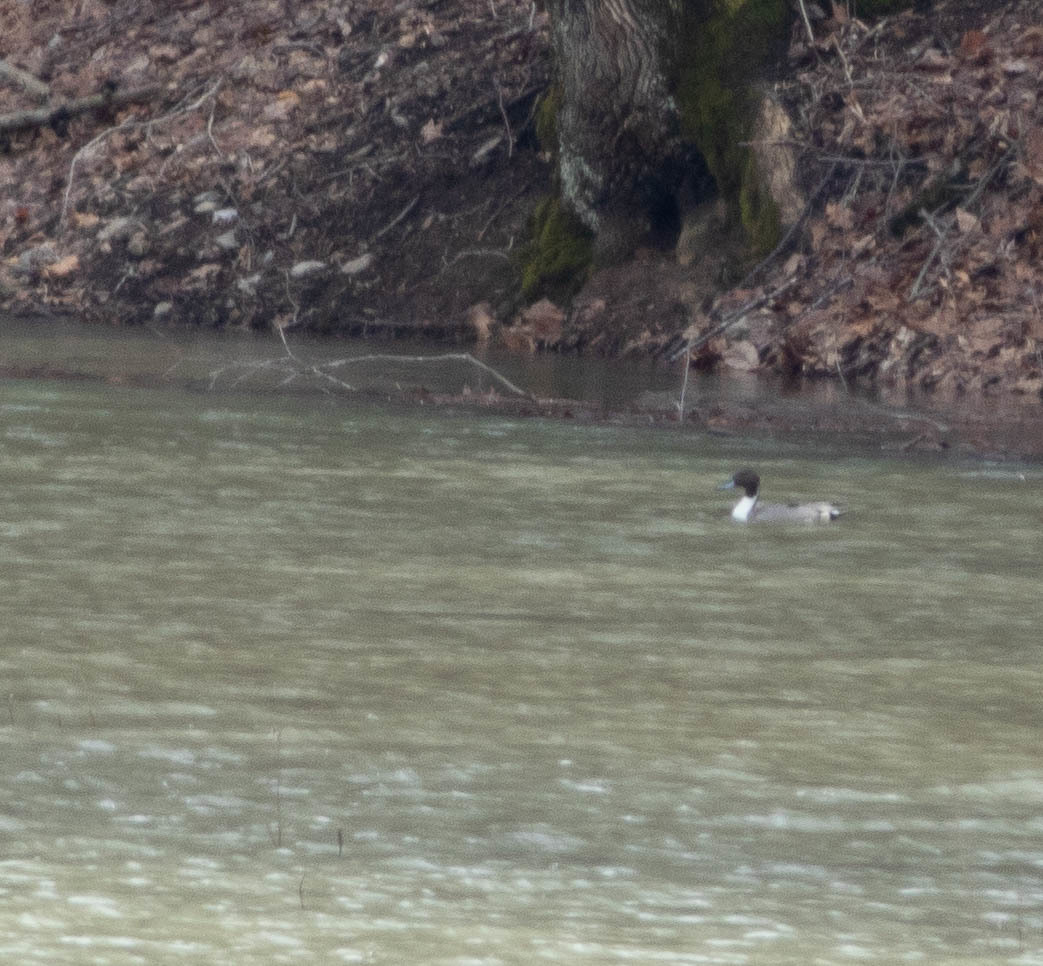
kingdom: Animalia
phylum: Chordata
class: Aves
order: Anseriformes
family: Anatidae
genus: Anas
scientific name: Anas acuta
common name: Northern pintail
